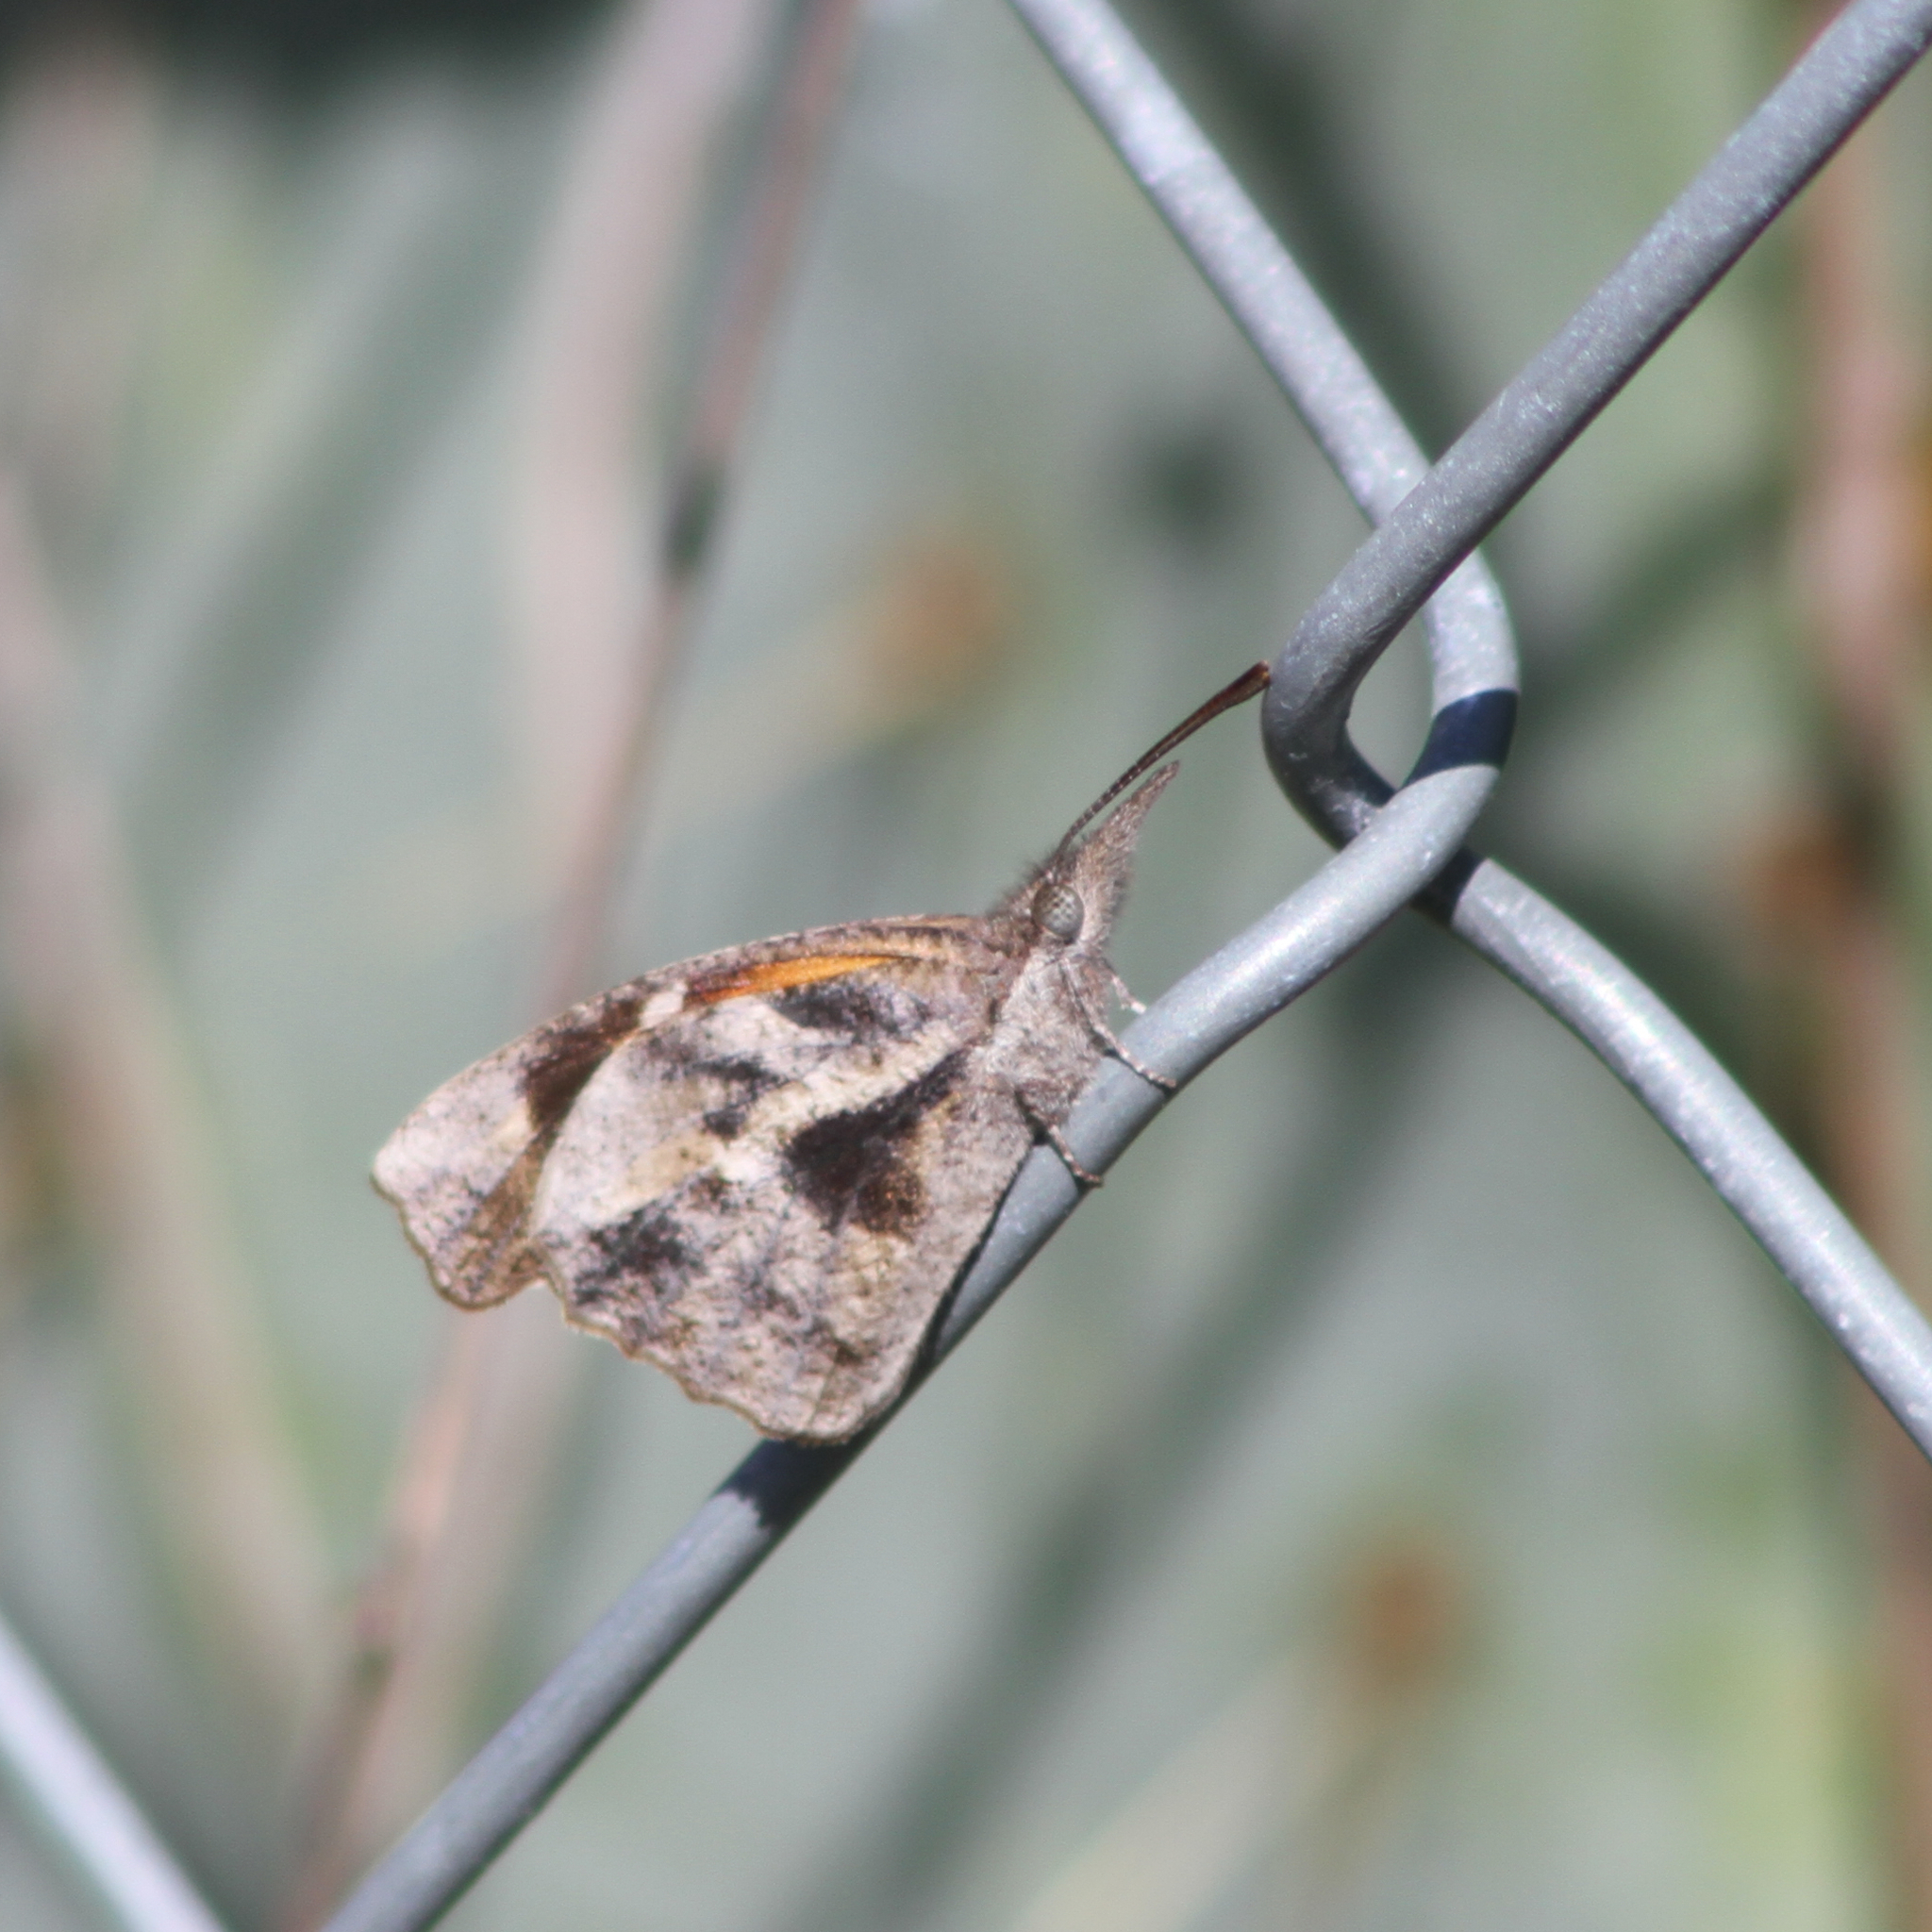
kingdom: Animalia
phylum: Arthropoda
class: Insecta
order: Lepidoptera
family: Nymphalidae
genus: Libytheana
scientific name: Libytheana carinenta
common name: American snout
